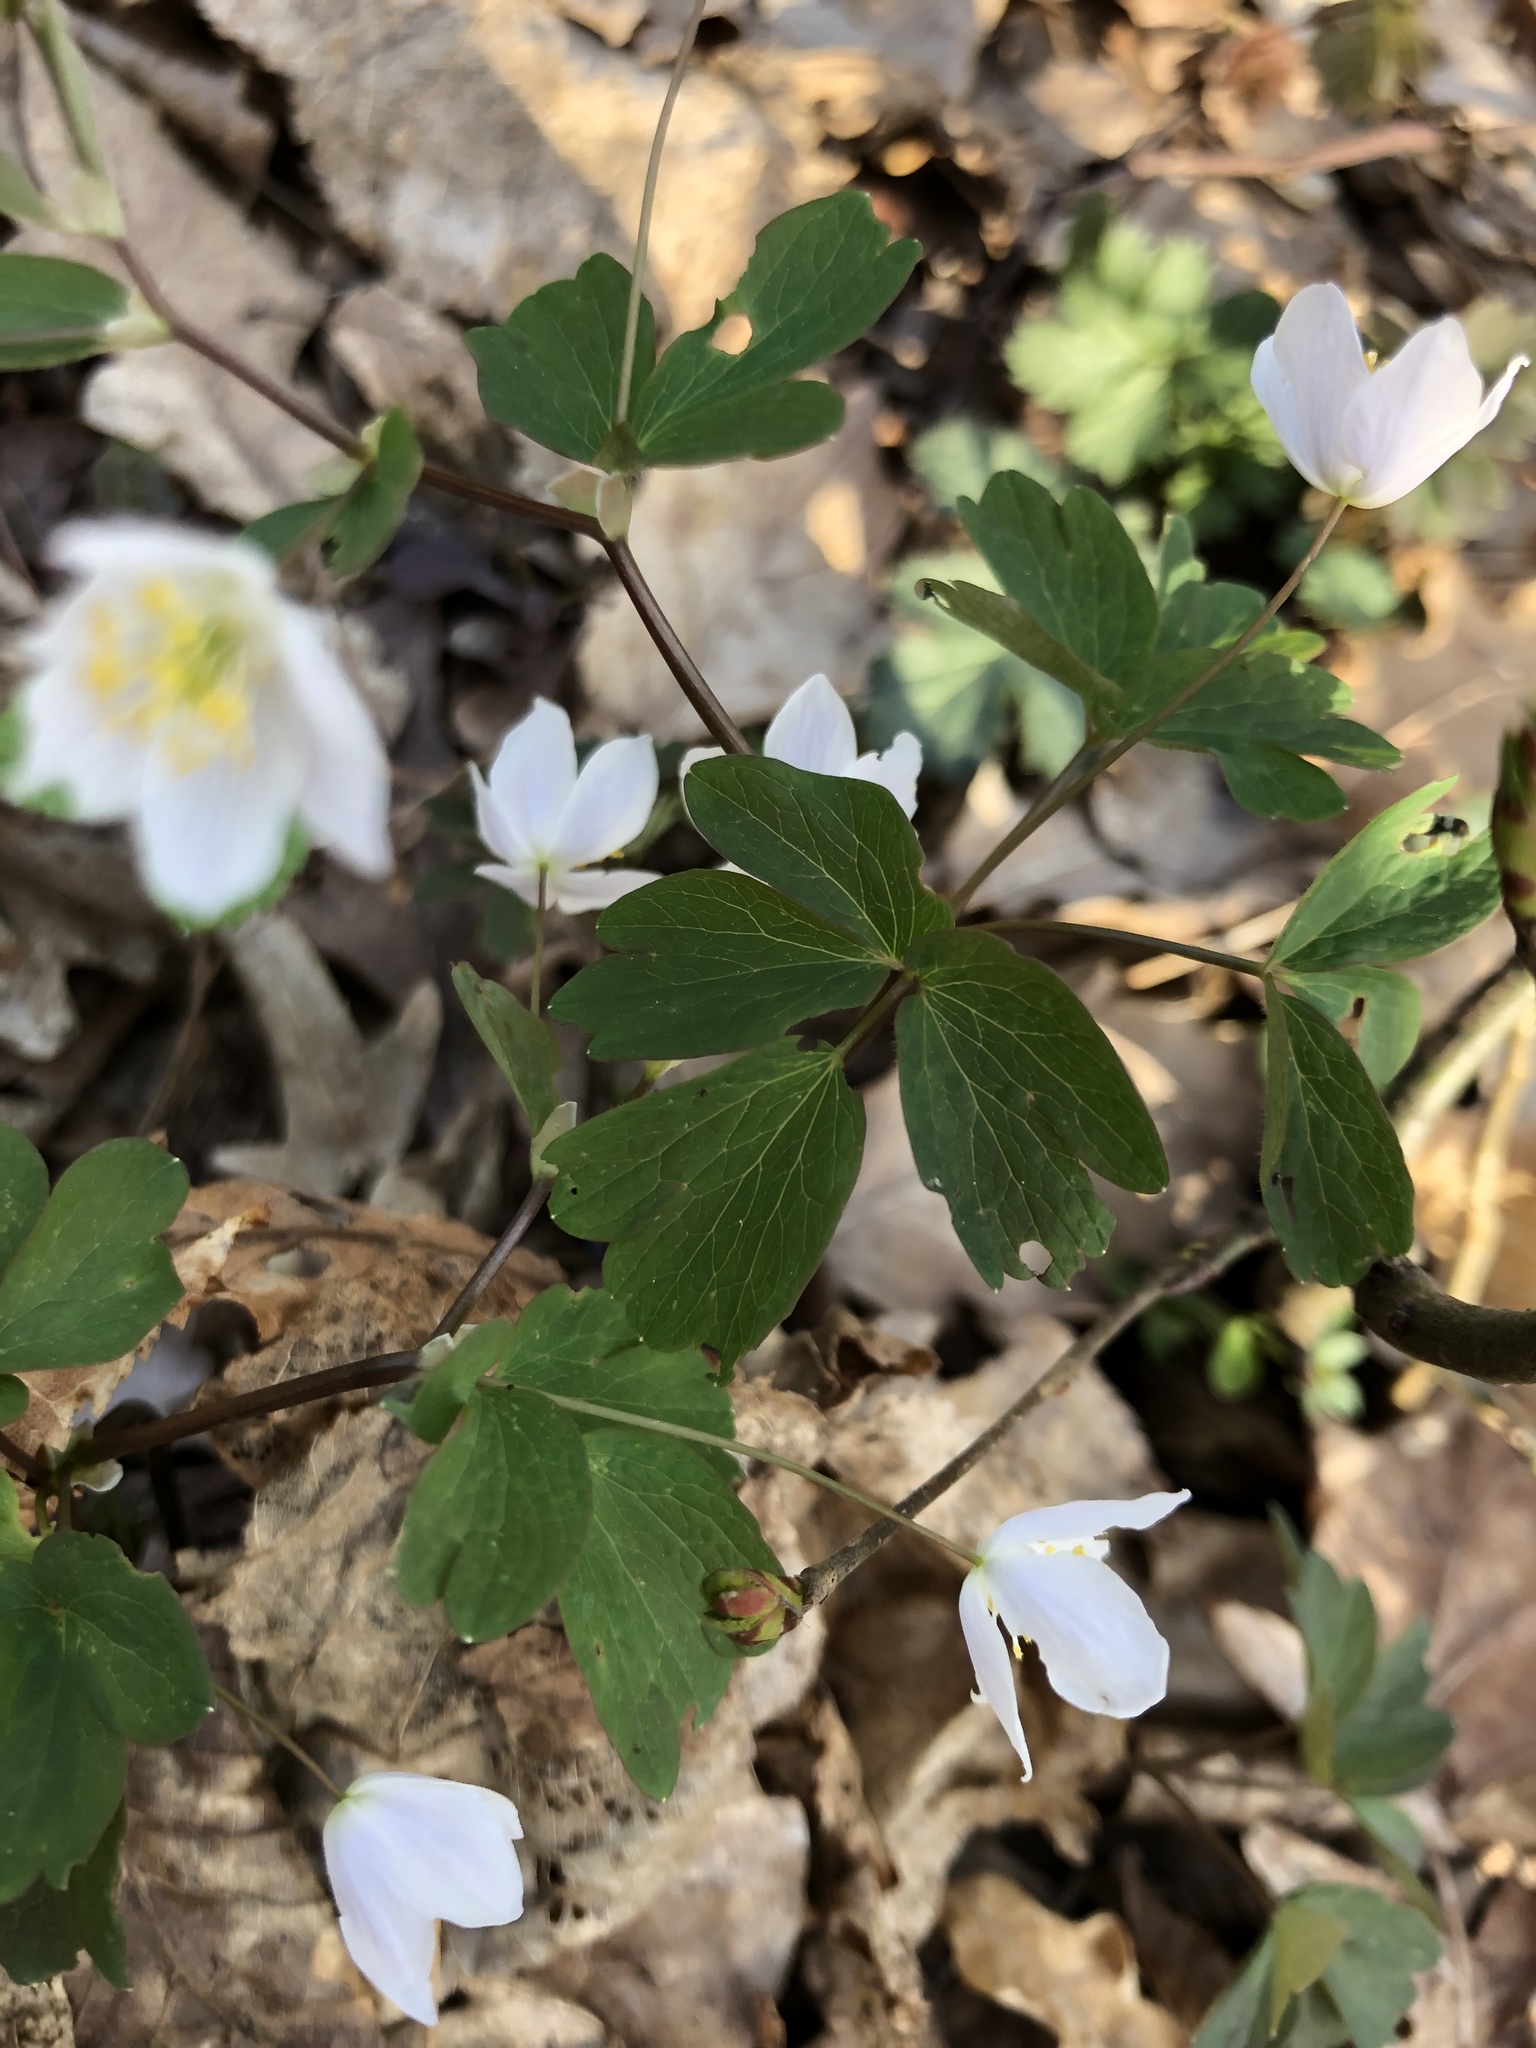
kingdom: Plantae
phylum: Tracheophyta
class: Magnoliopsida
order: Ranunculales
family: Ranunculaceae
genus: Isopyrum
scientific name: Isopyrum thalictroides
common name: Isopyrum
